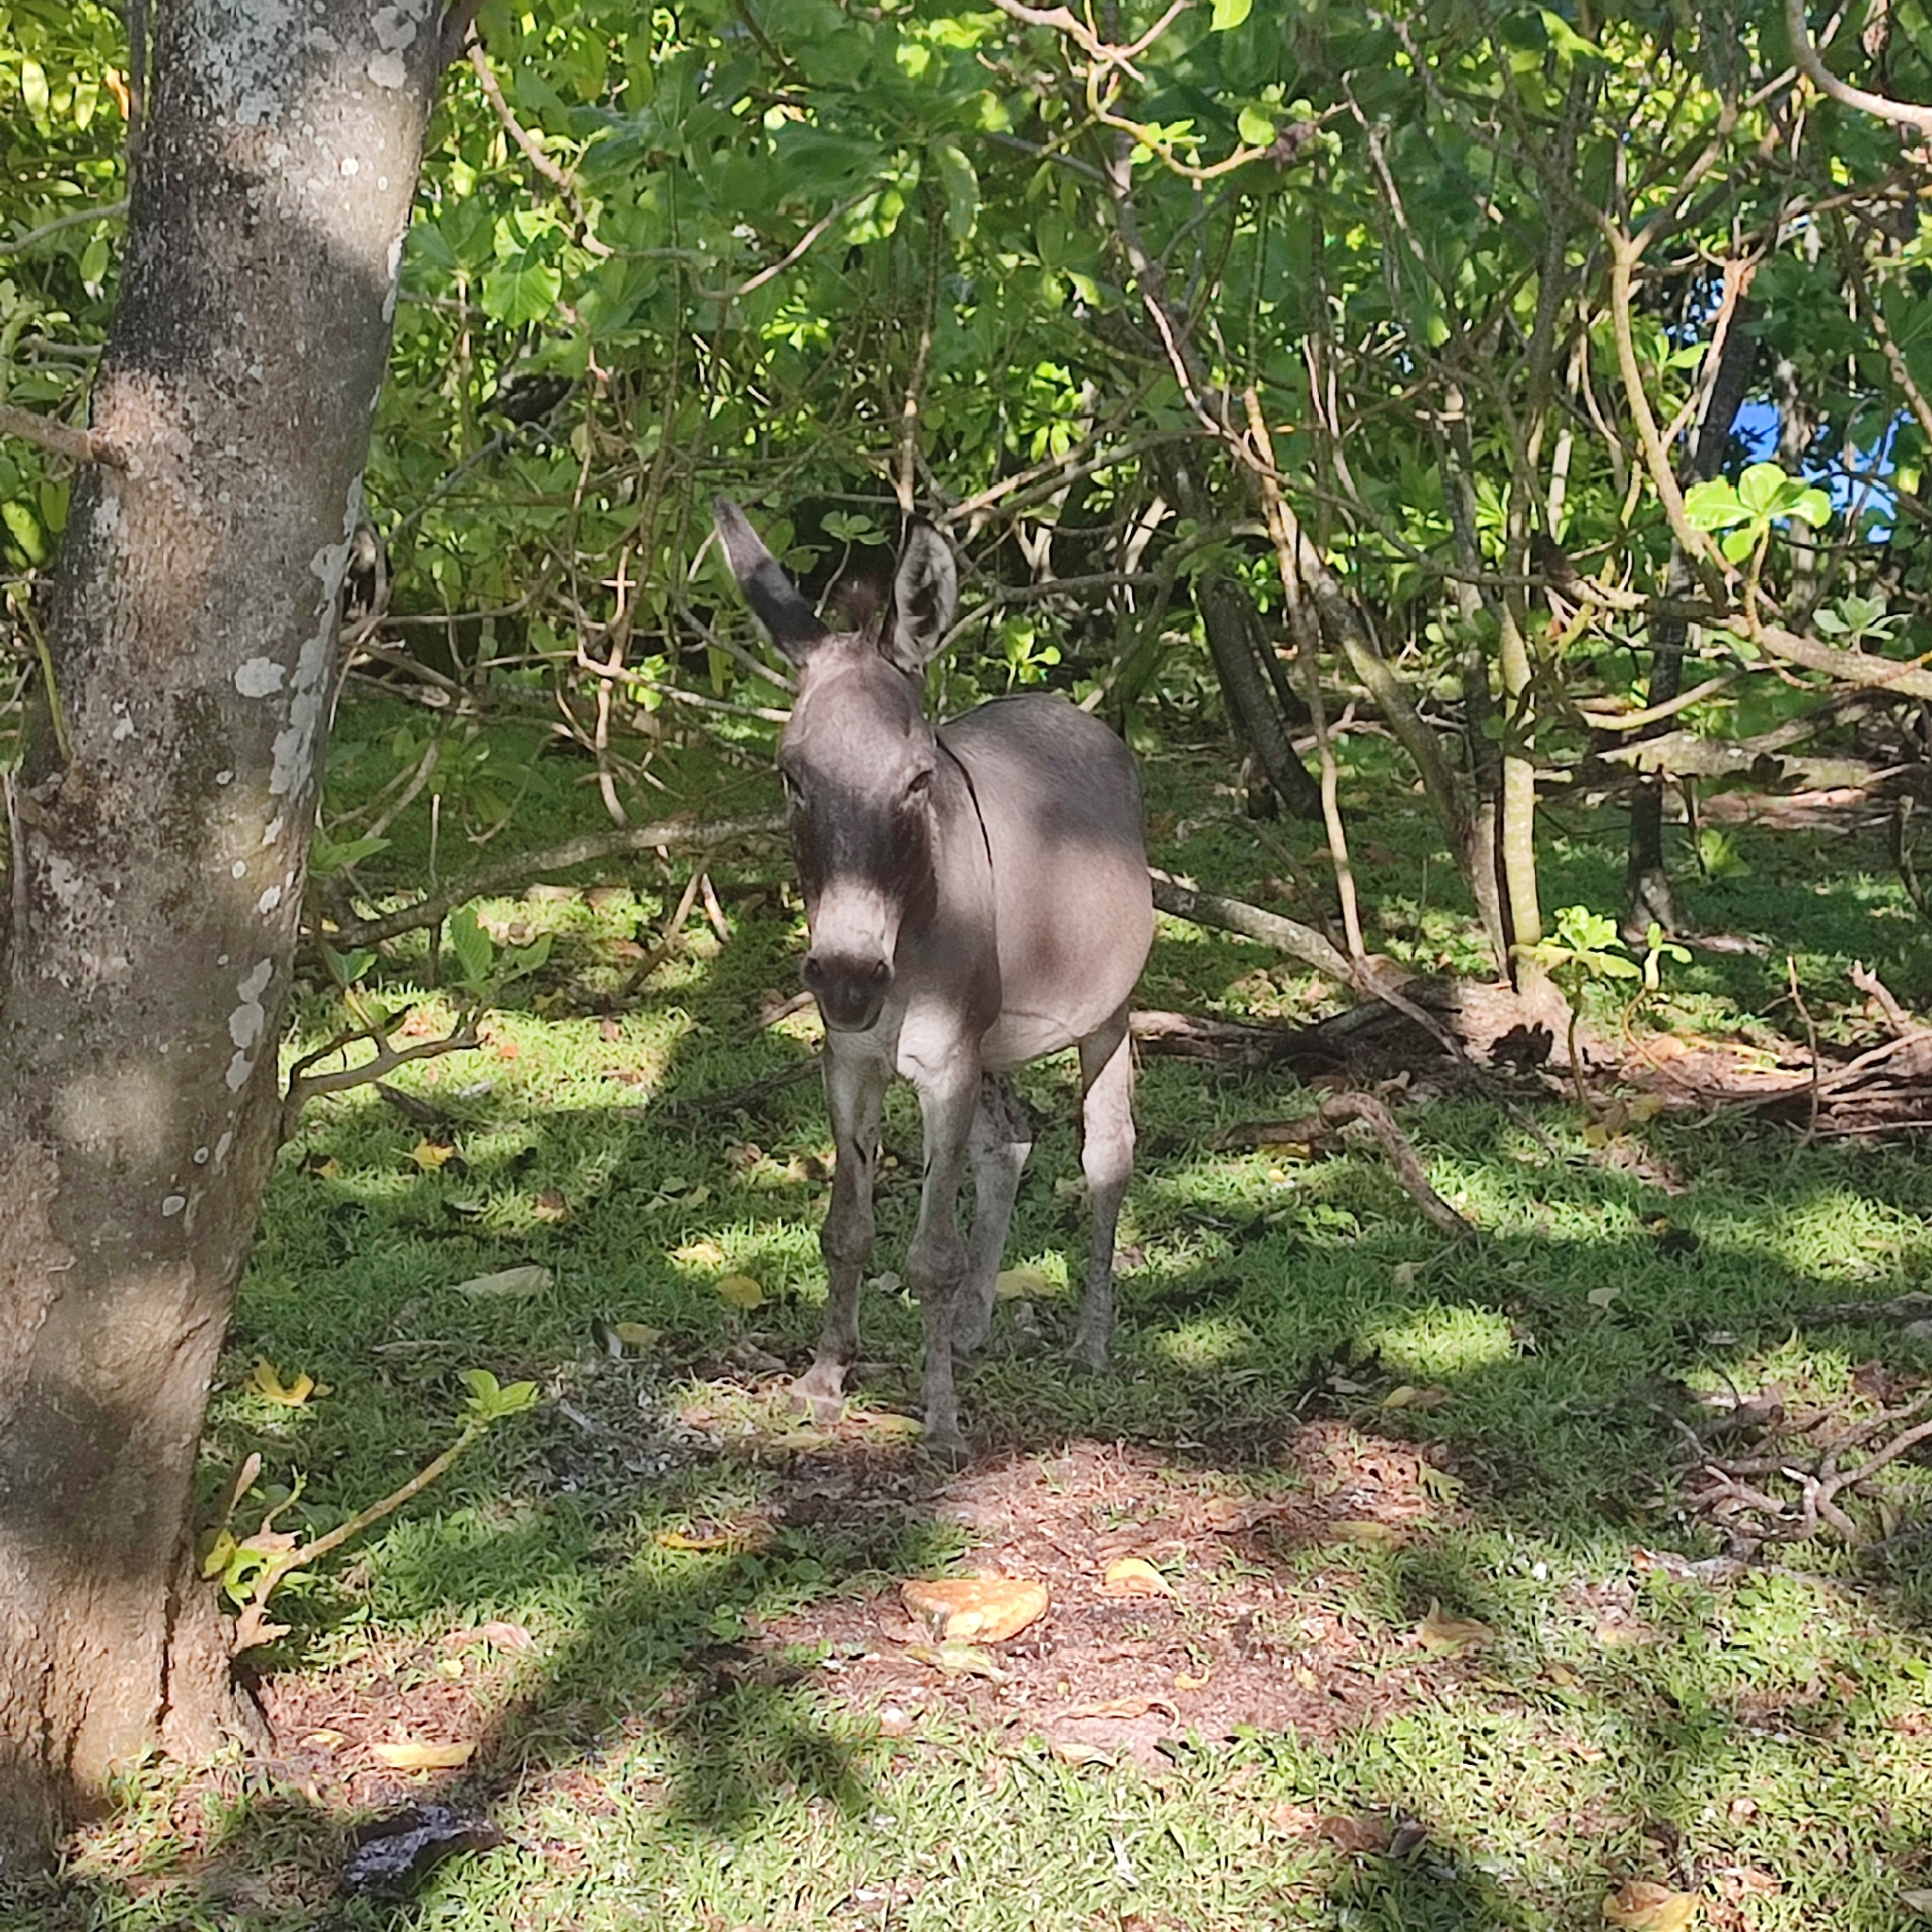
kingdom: Animalia
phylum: Chordata
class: Mammalia
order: Perissodactyla
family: Equidae
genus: Equus
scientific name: Equus asinus
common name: Ass
